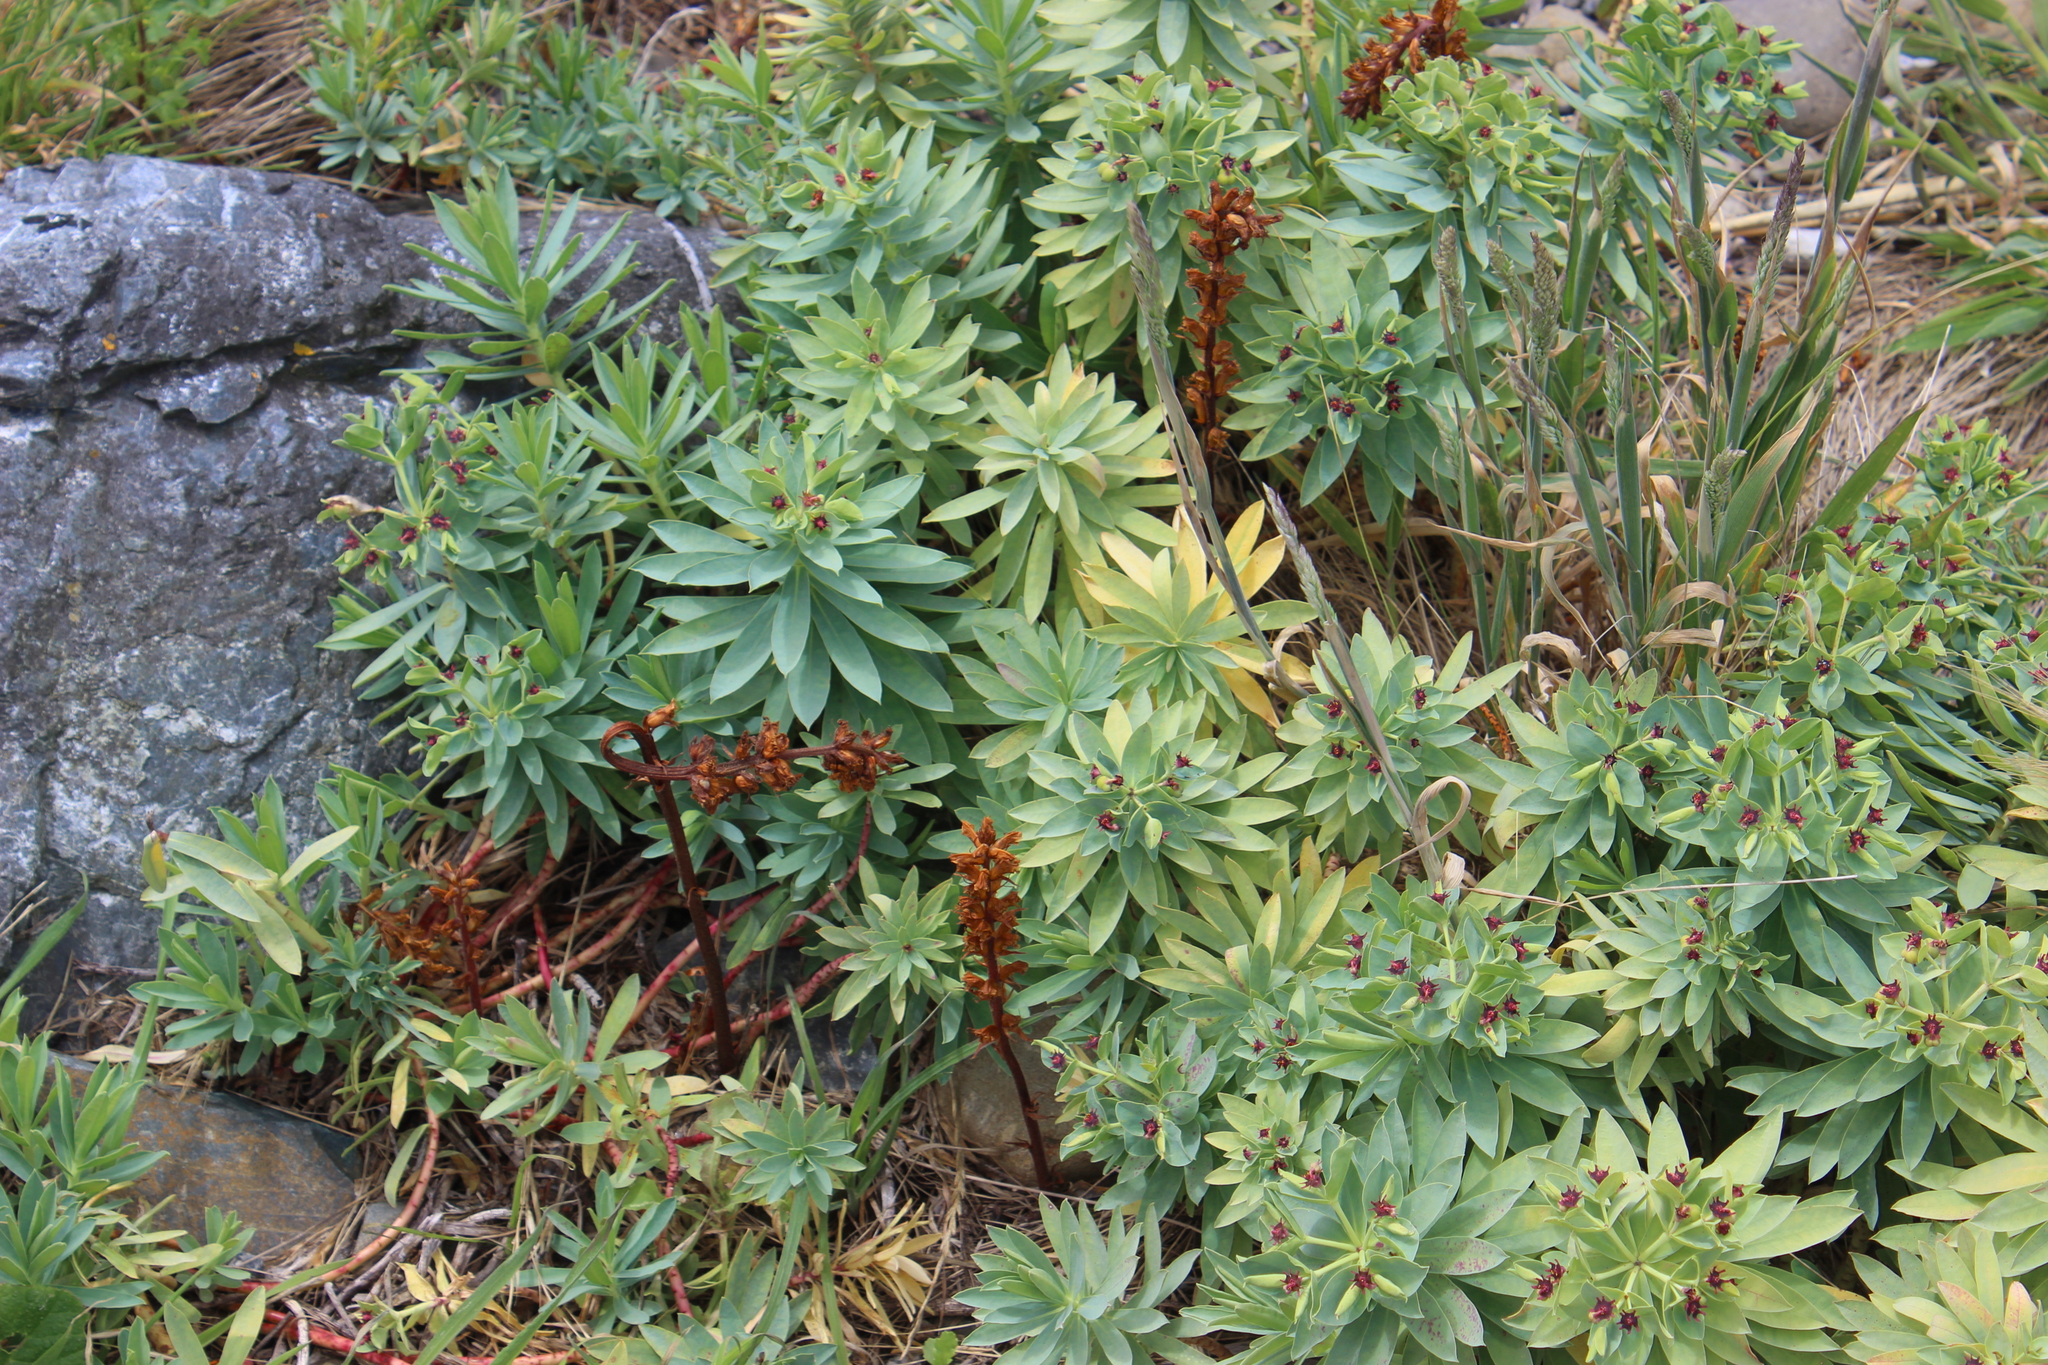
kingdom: Plantae
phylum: Tracheophyta
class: Magnoliopsida
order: Lamiales
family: Orobanchaceae
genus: Orobanche
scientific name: Orobanche minor
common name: Common broomrape
